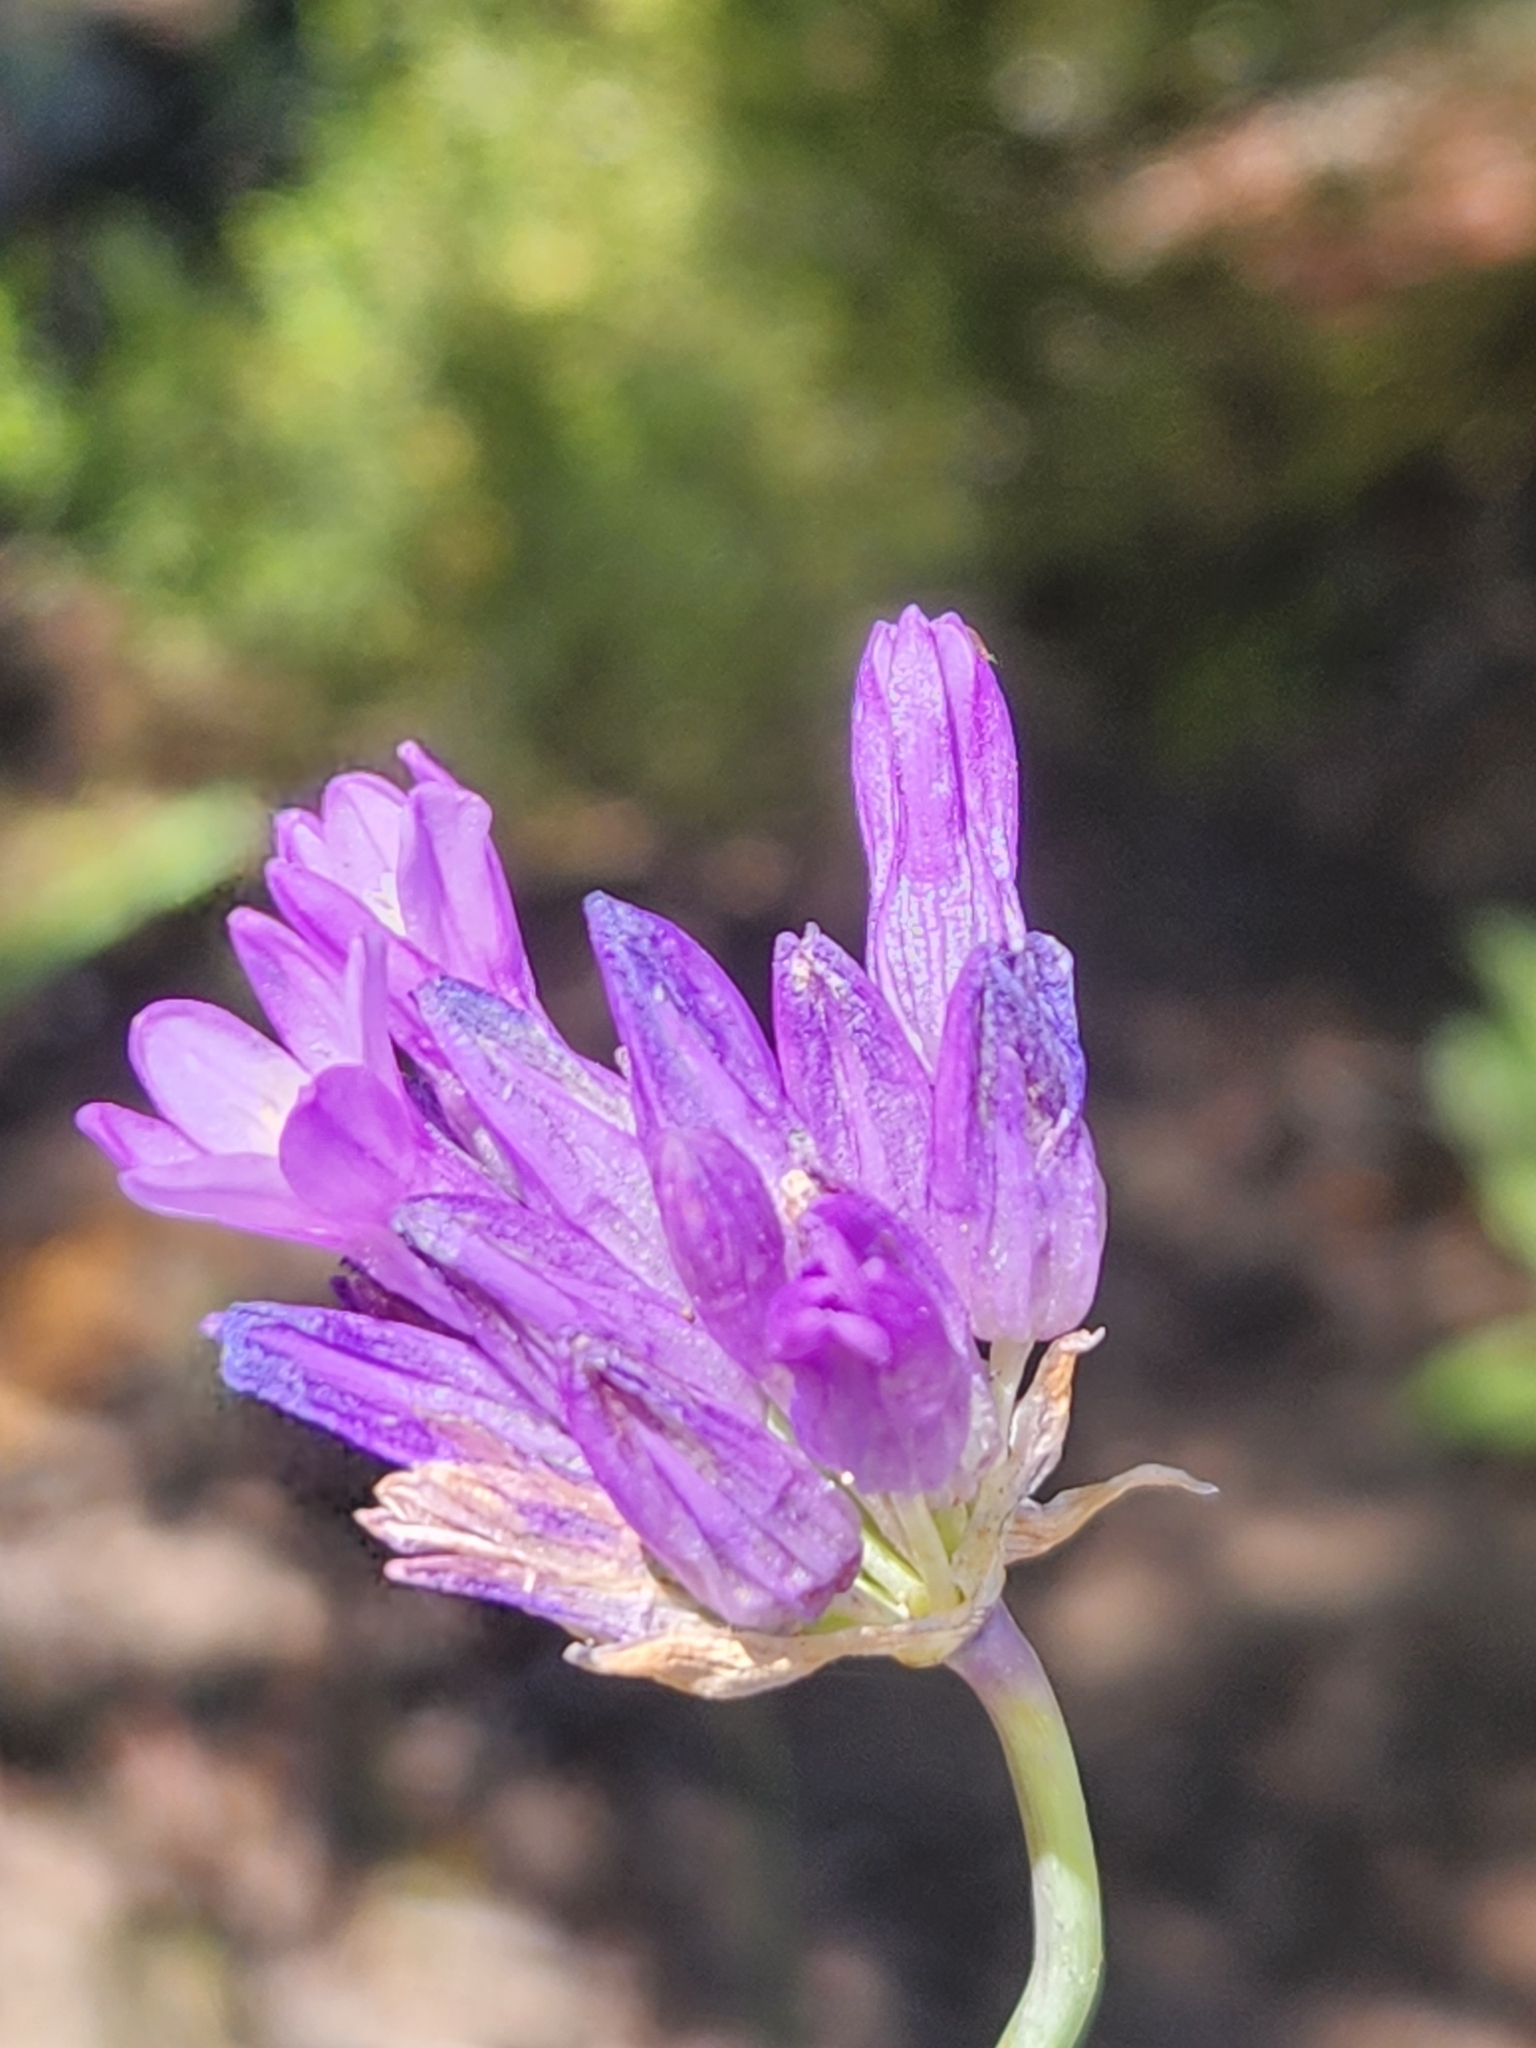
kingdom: Plantae
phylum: Tracheophyta
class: Liliopsida
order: Asparagales
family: Asparagaceae
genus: Dipterostemon
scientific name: Dipterostemon capitatus
